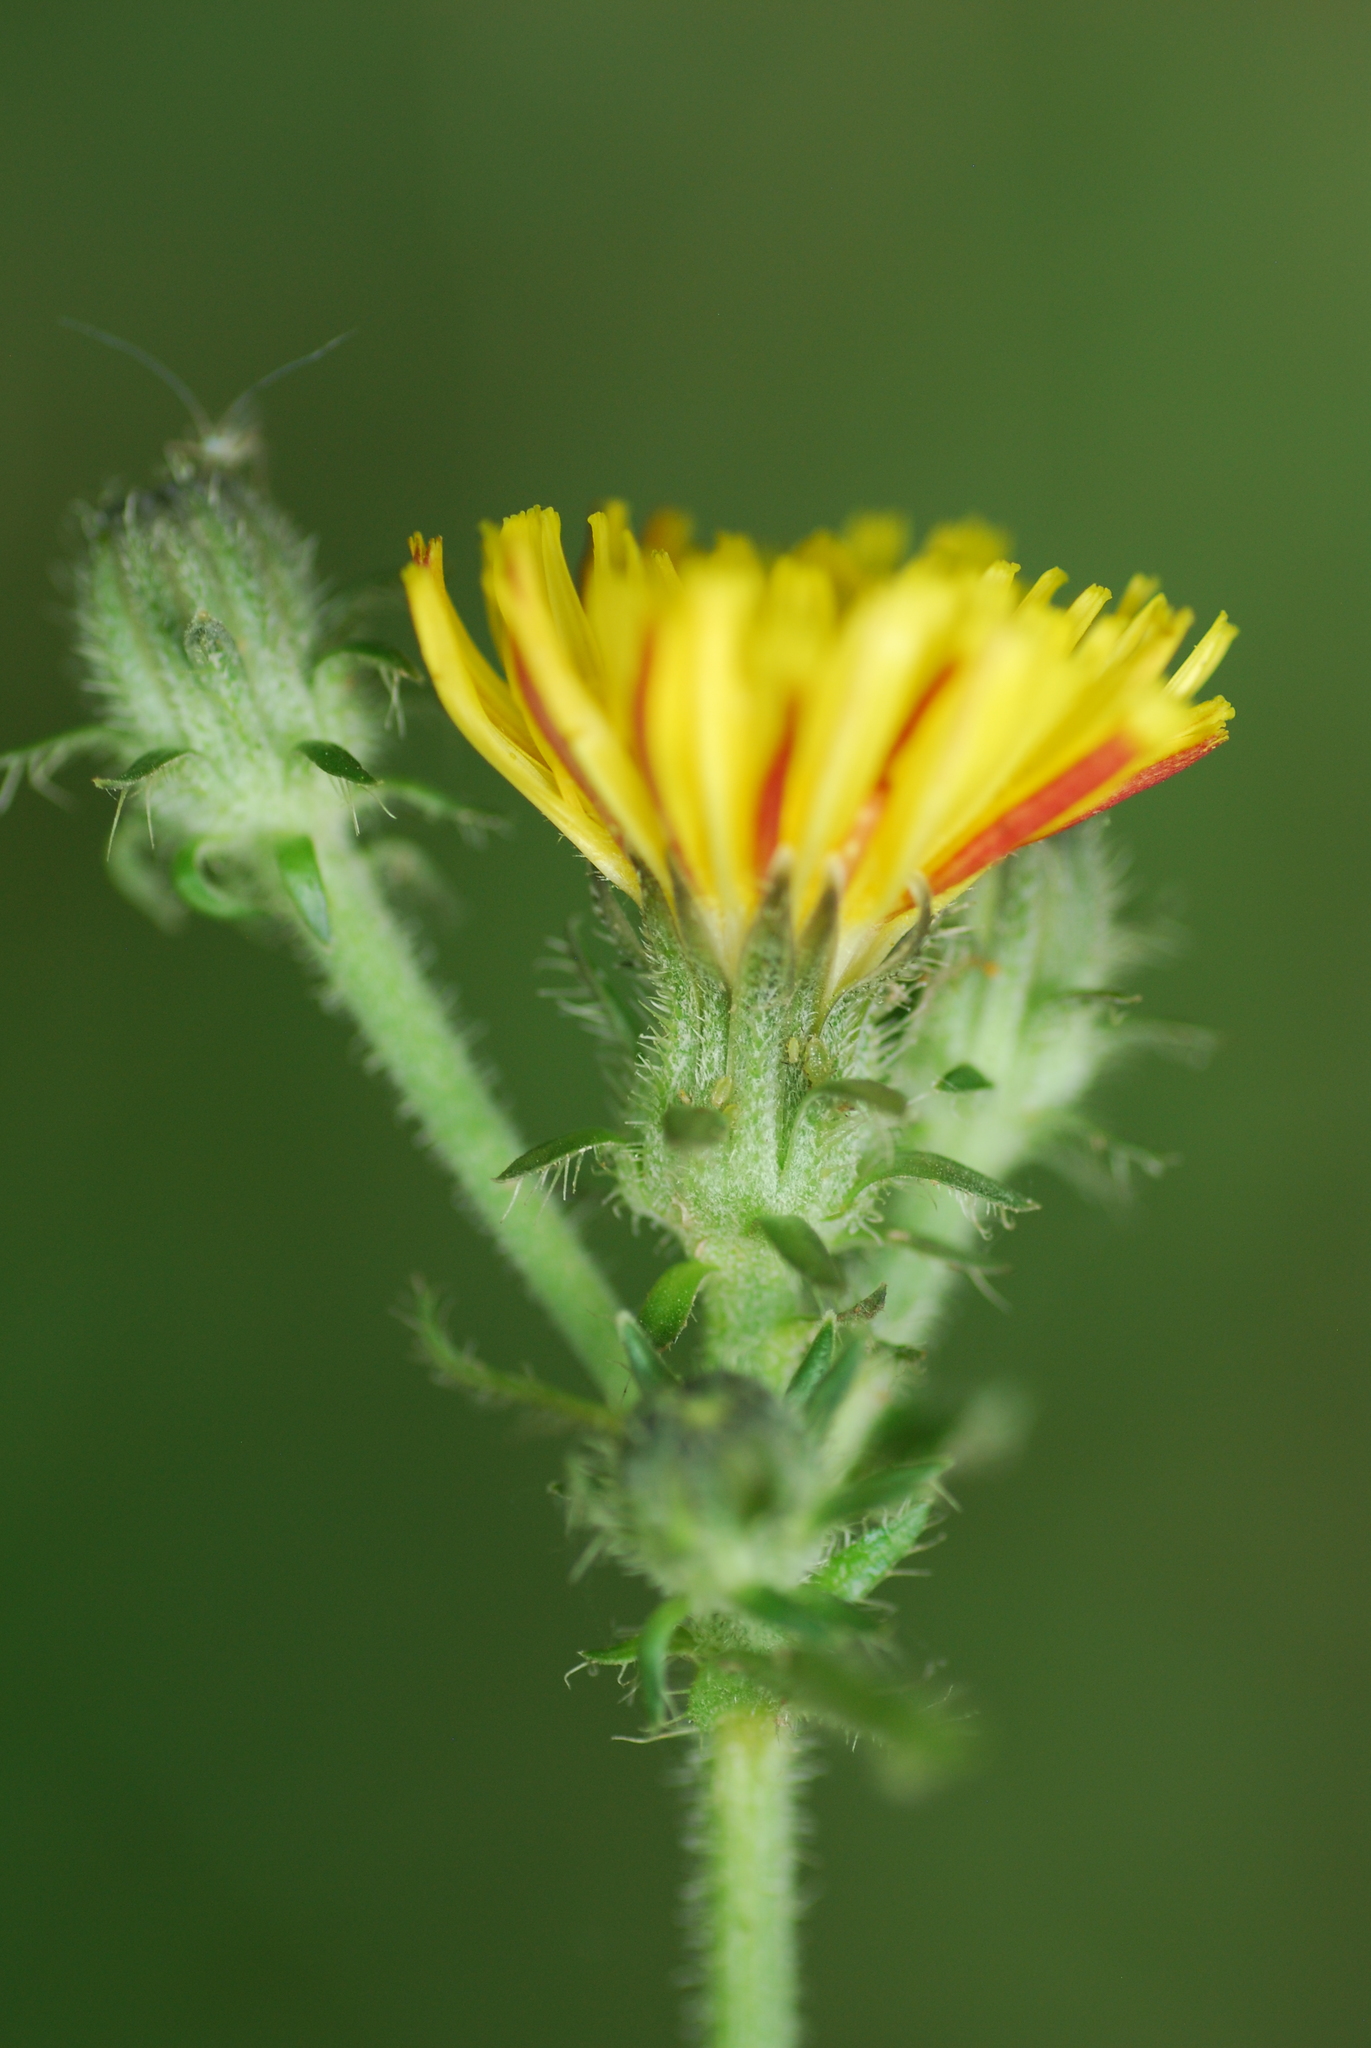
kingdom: Plantae
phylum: Tracheophyta
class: Magnoliopsida
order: Asterales
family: Asteraceae
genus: Picris
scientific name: Picris hieracioides
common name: Hawkweed oxtongue
